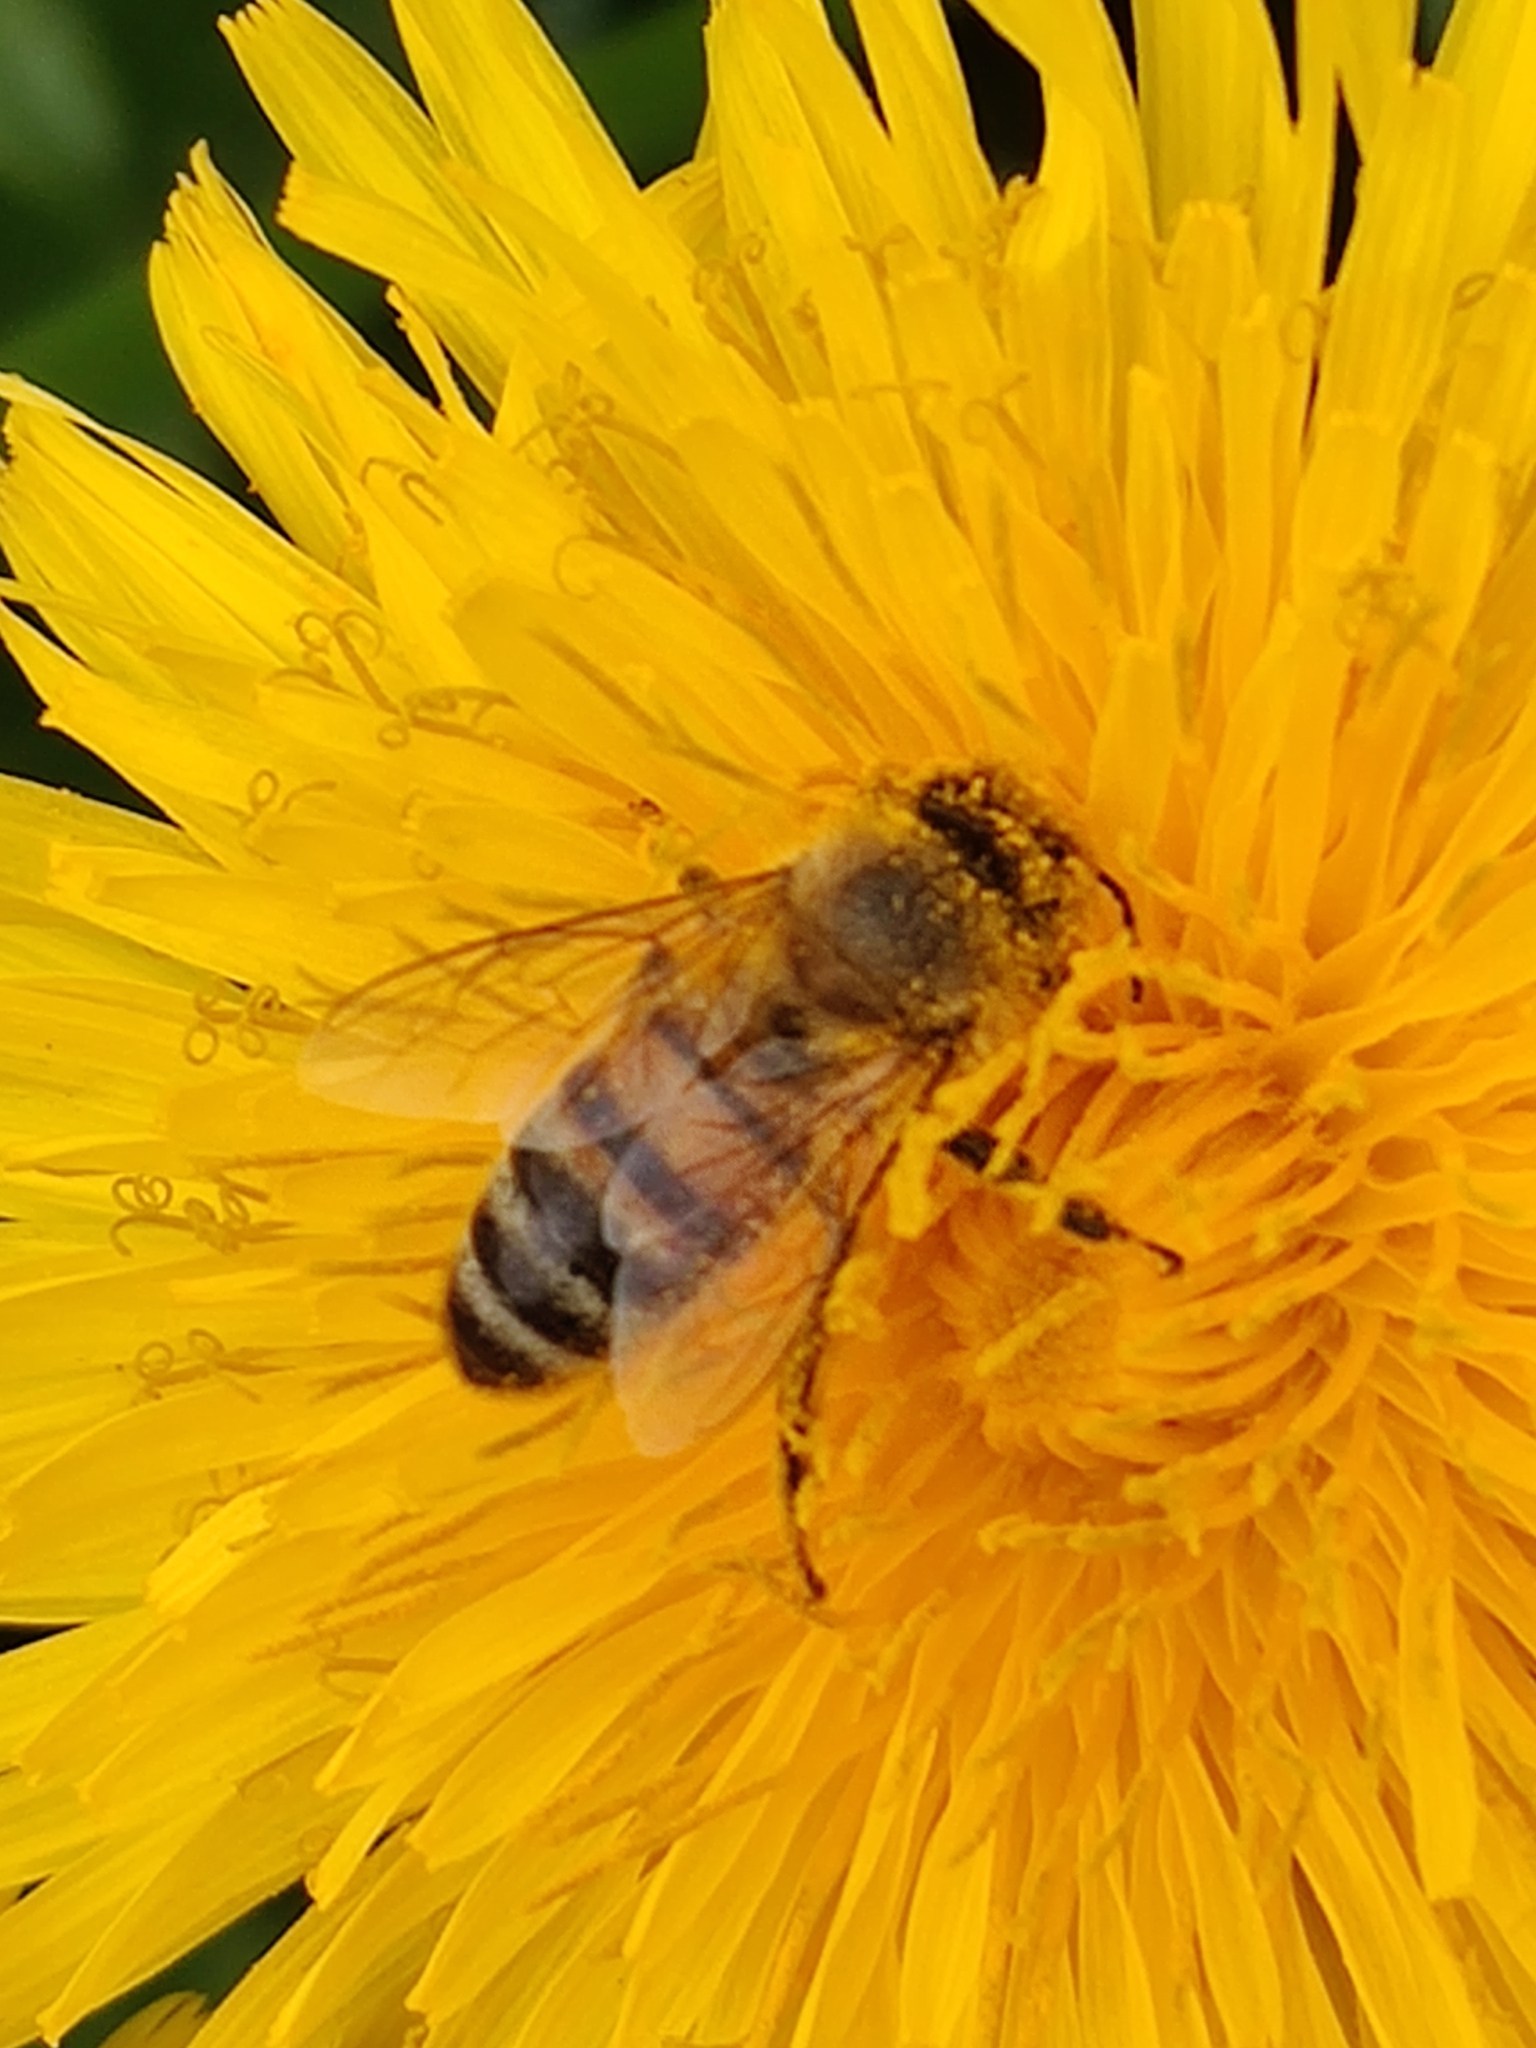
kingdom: Animalia
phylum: Arthropoda
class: Insecta
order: Hymenoptera
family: Apidae
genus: Apis
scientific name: Apis mellifera
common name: Honey bee
